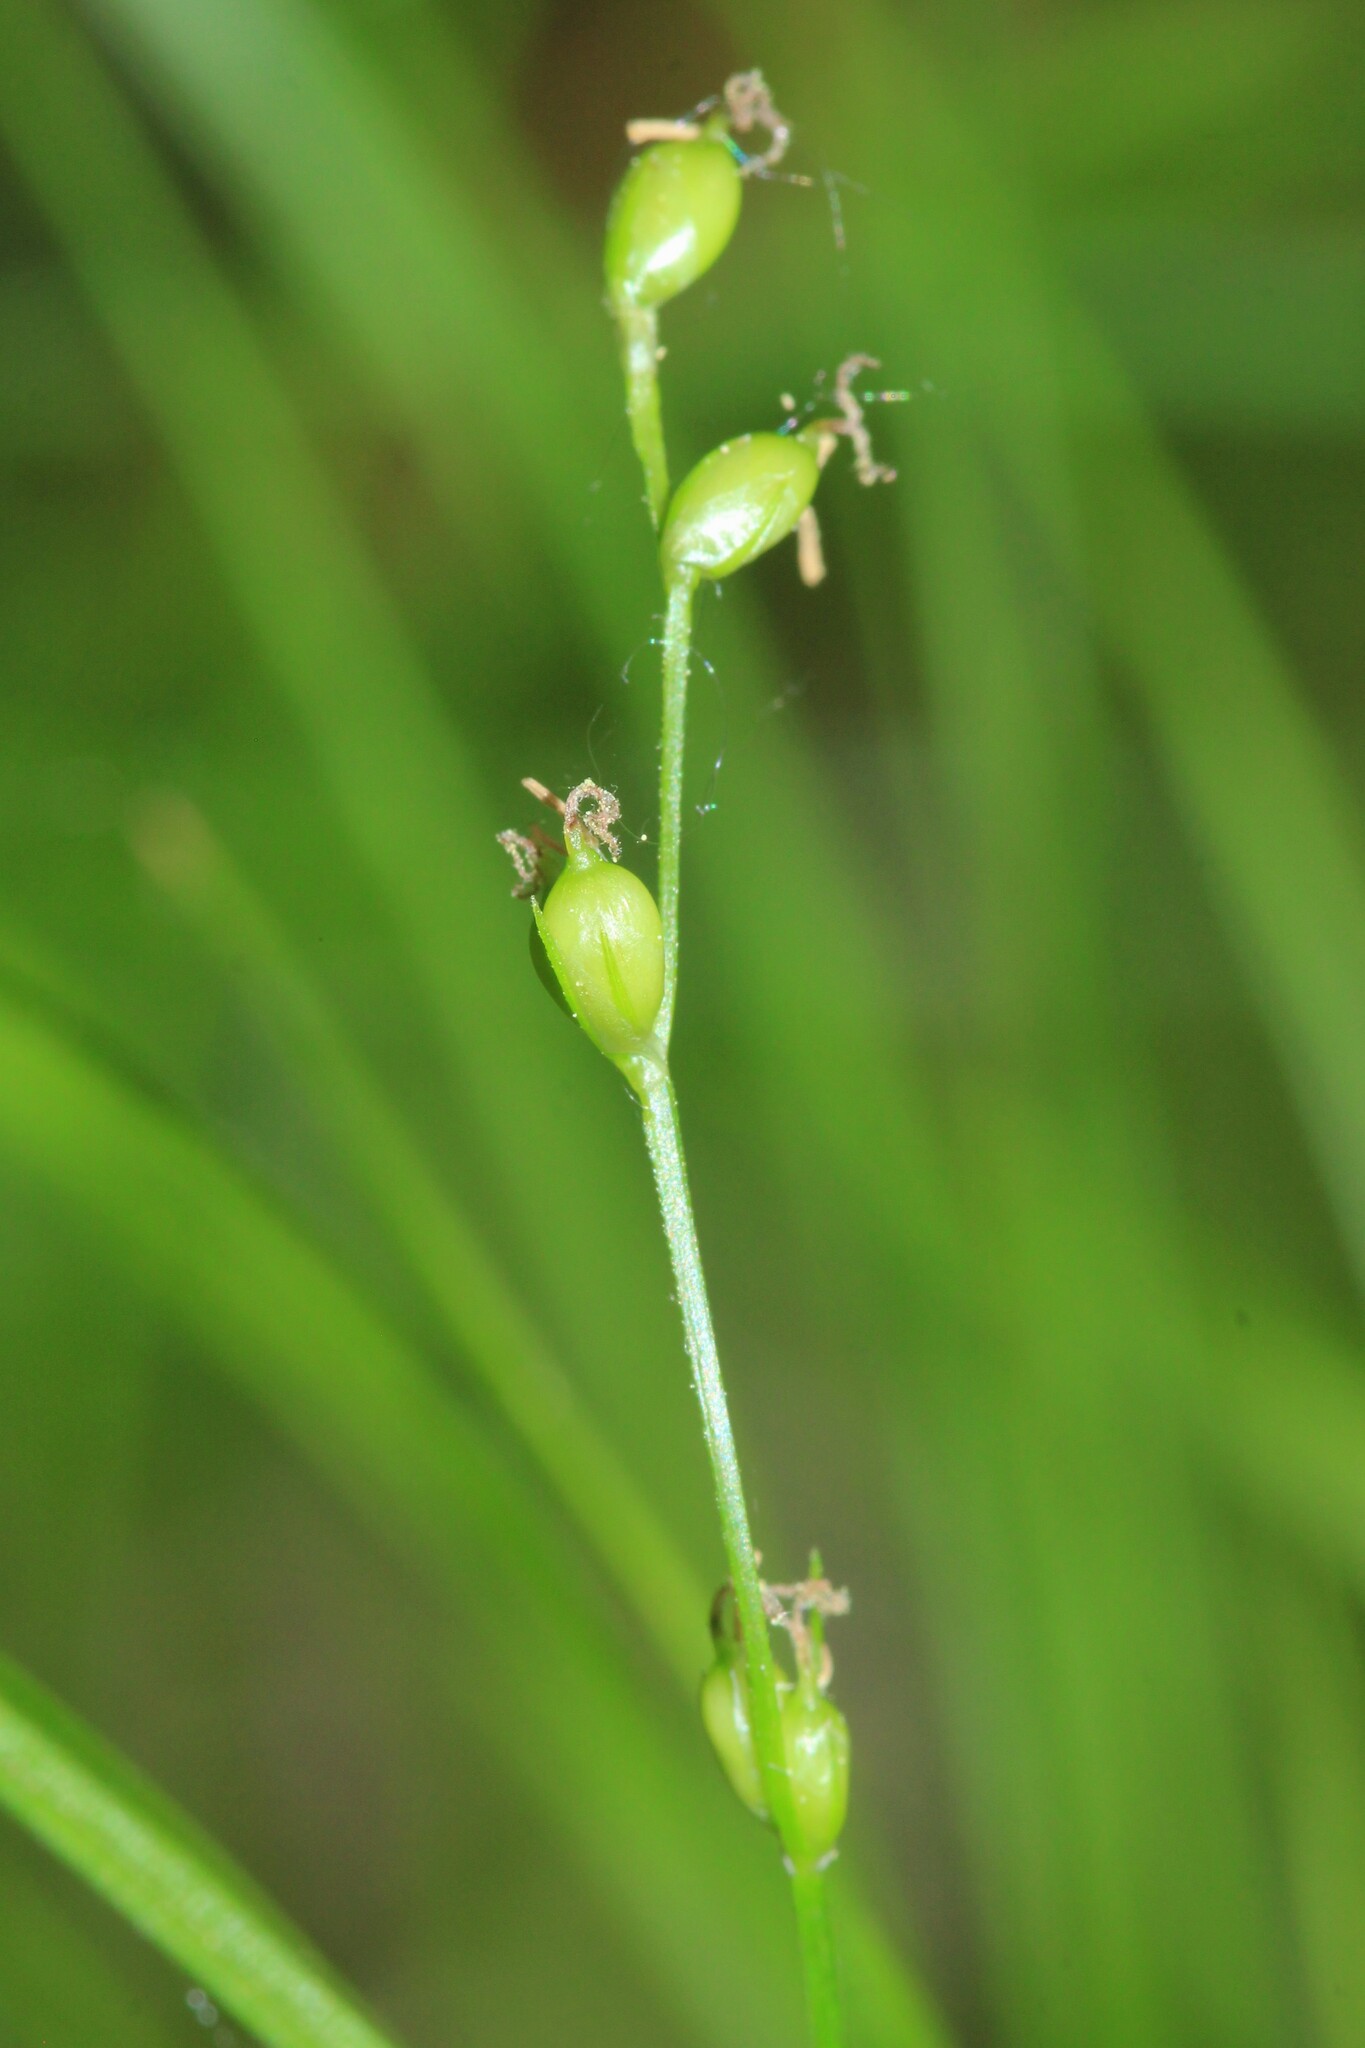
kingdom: Plantae
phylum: Tracheophyta
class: Liliopsida
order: Poales
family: Cyperaceae
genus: Carex
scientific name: Carex disperma
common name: Short-leaved sedge
